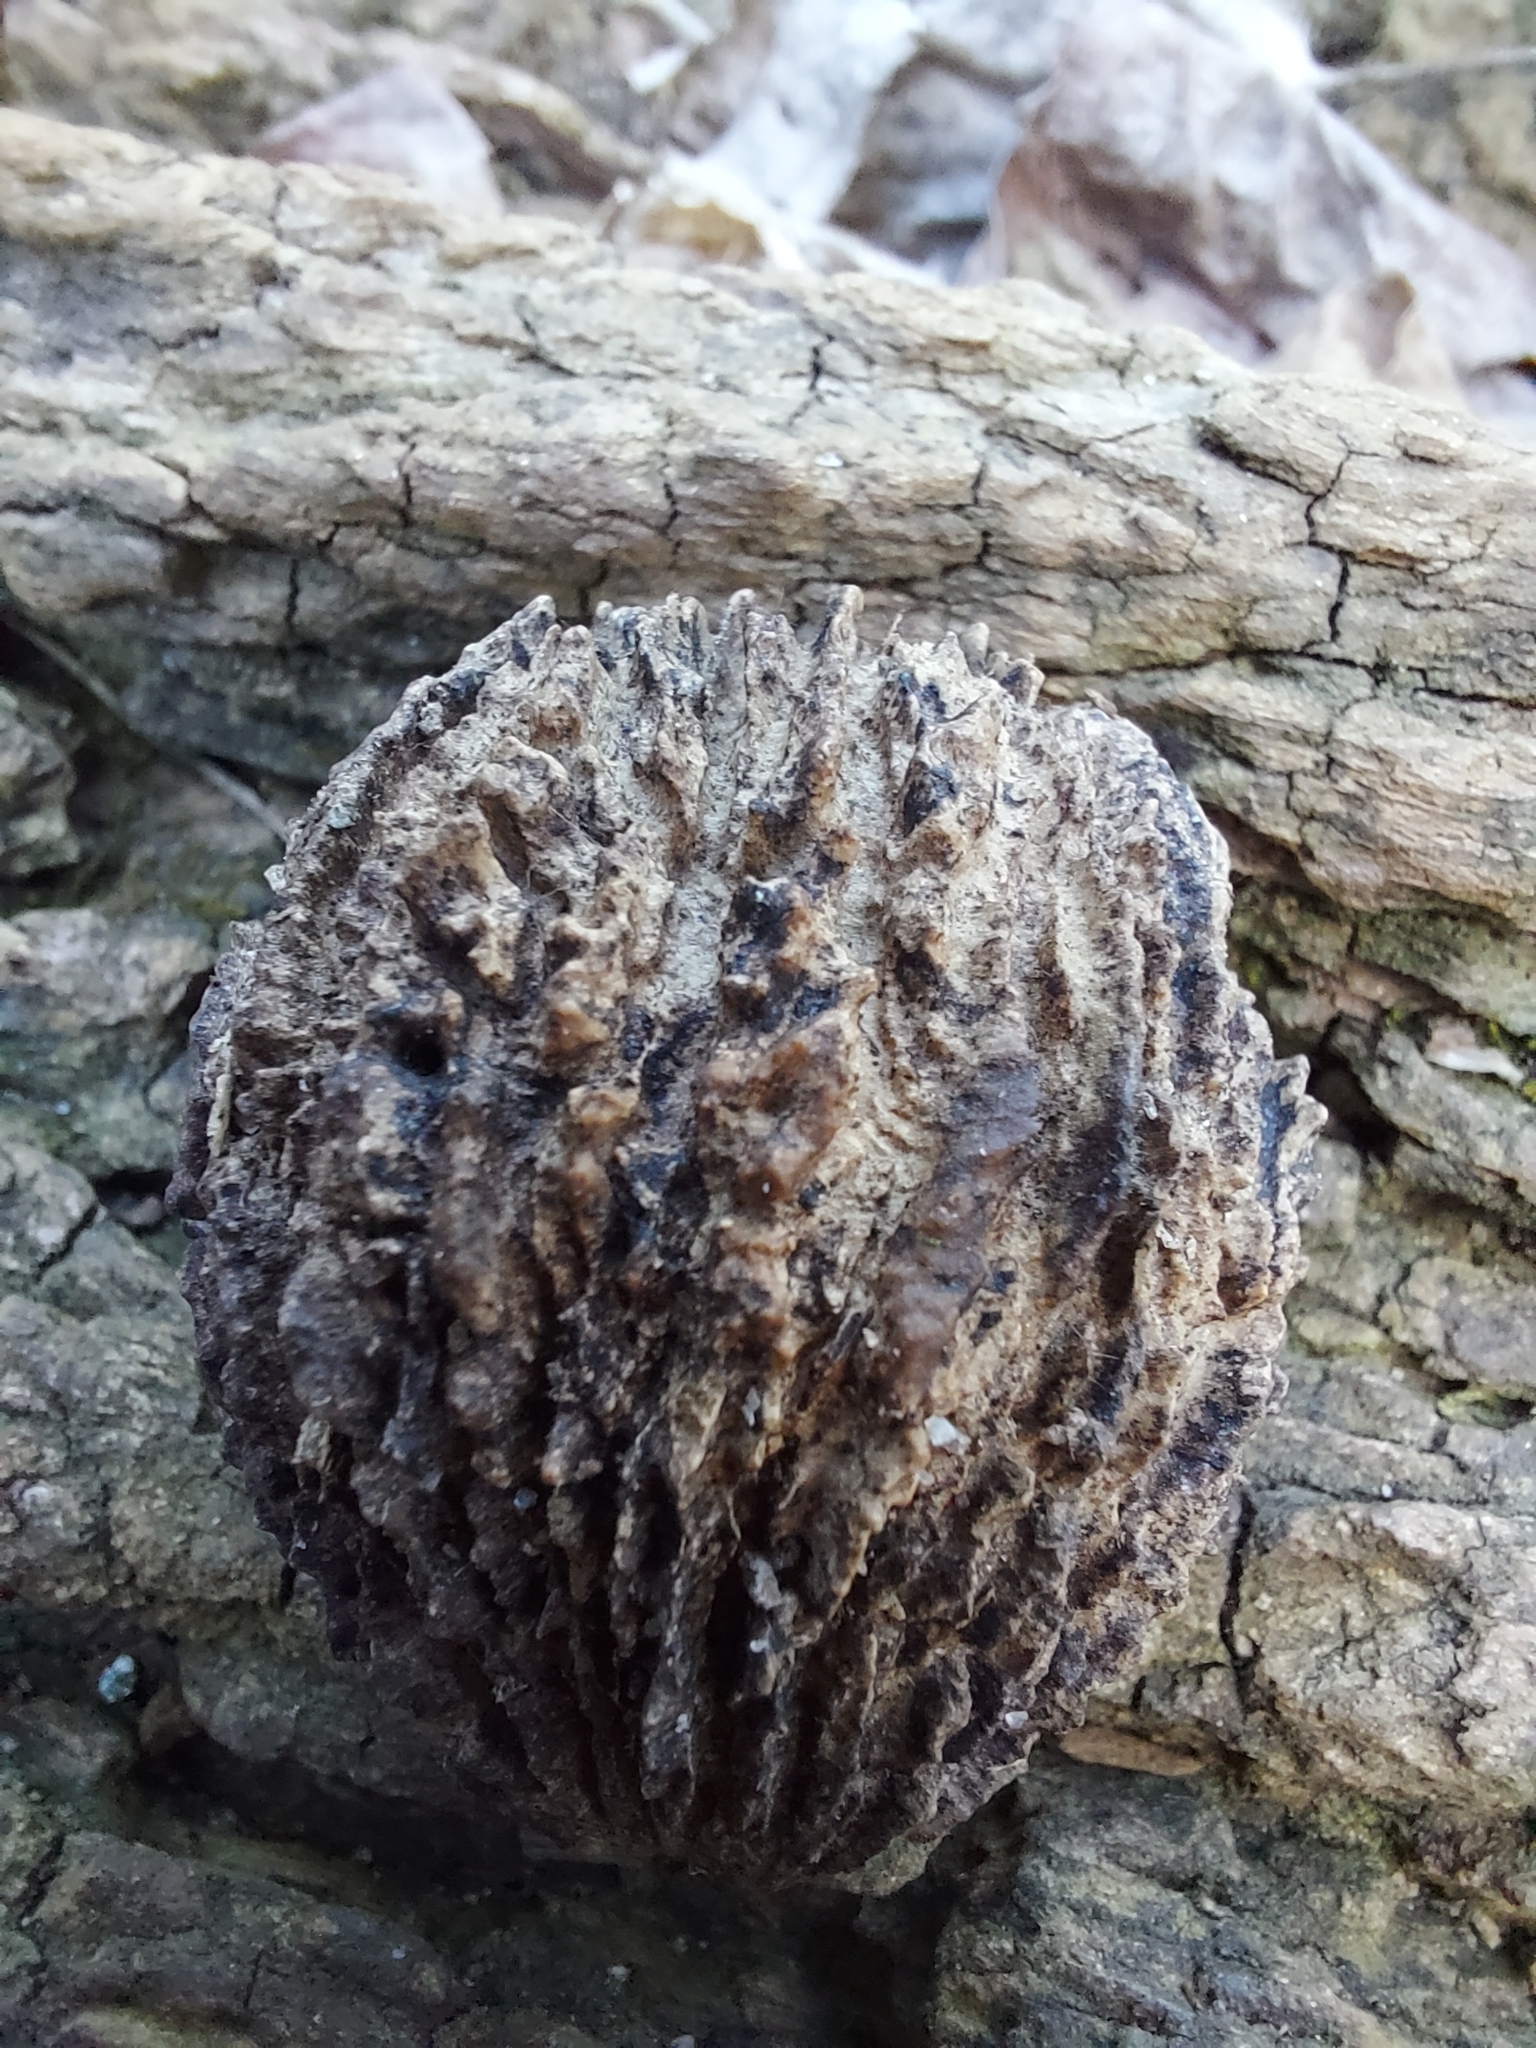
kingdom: Plantae
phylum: Tracheophyta
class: Magnoliopsida
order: Fagales
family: Juglandaceae
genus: Juglans
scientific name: Juglans nigra
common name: Black walnut
